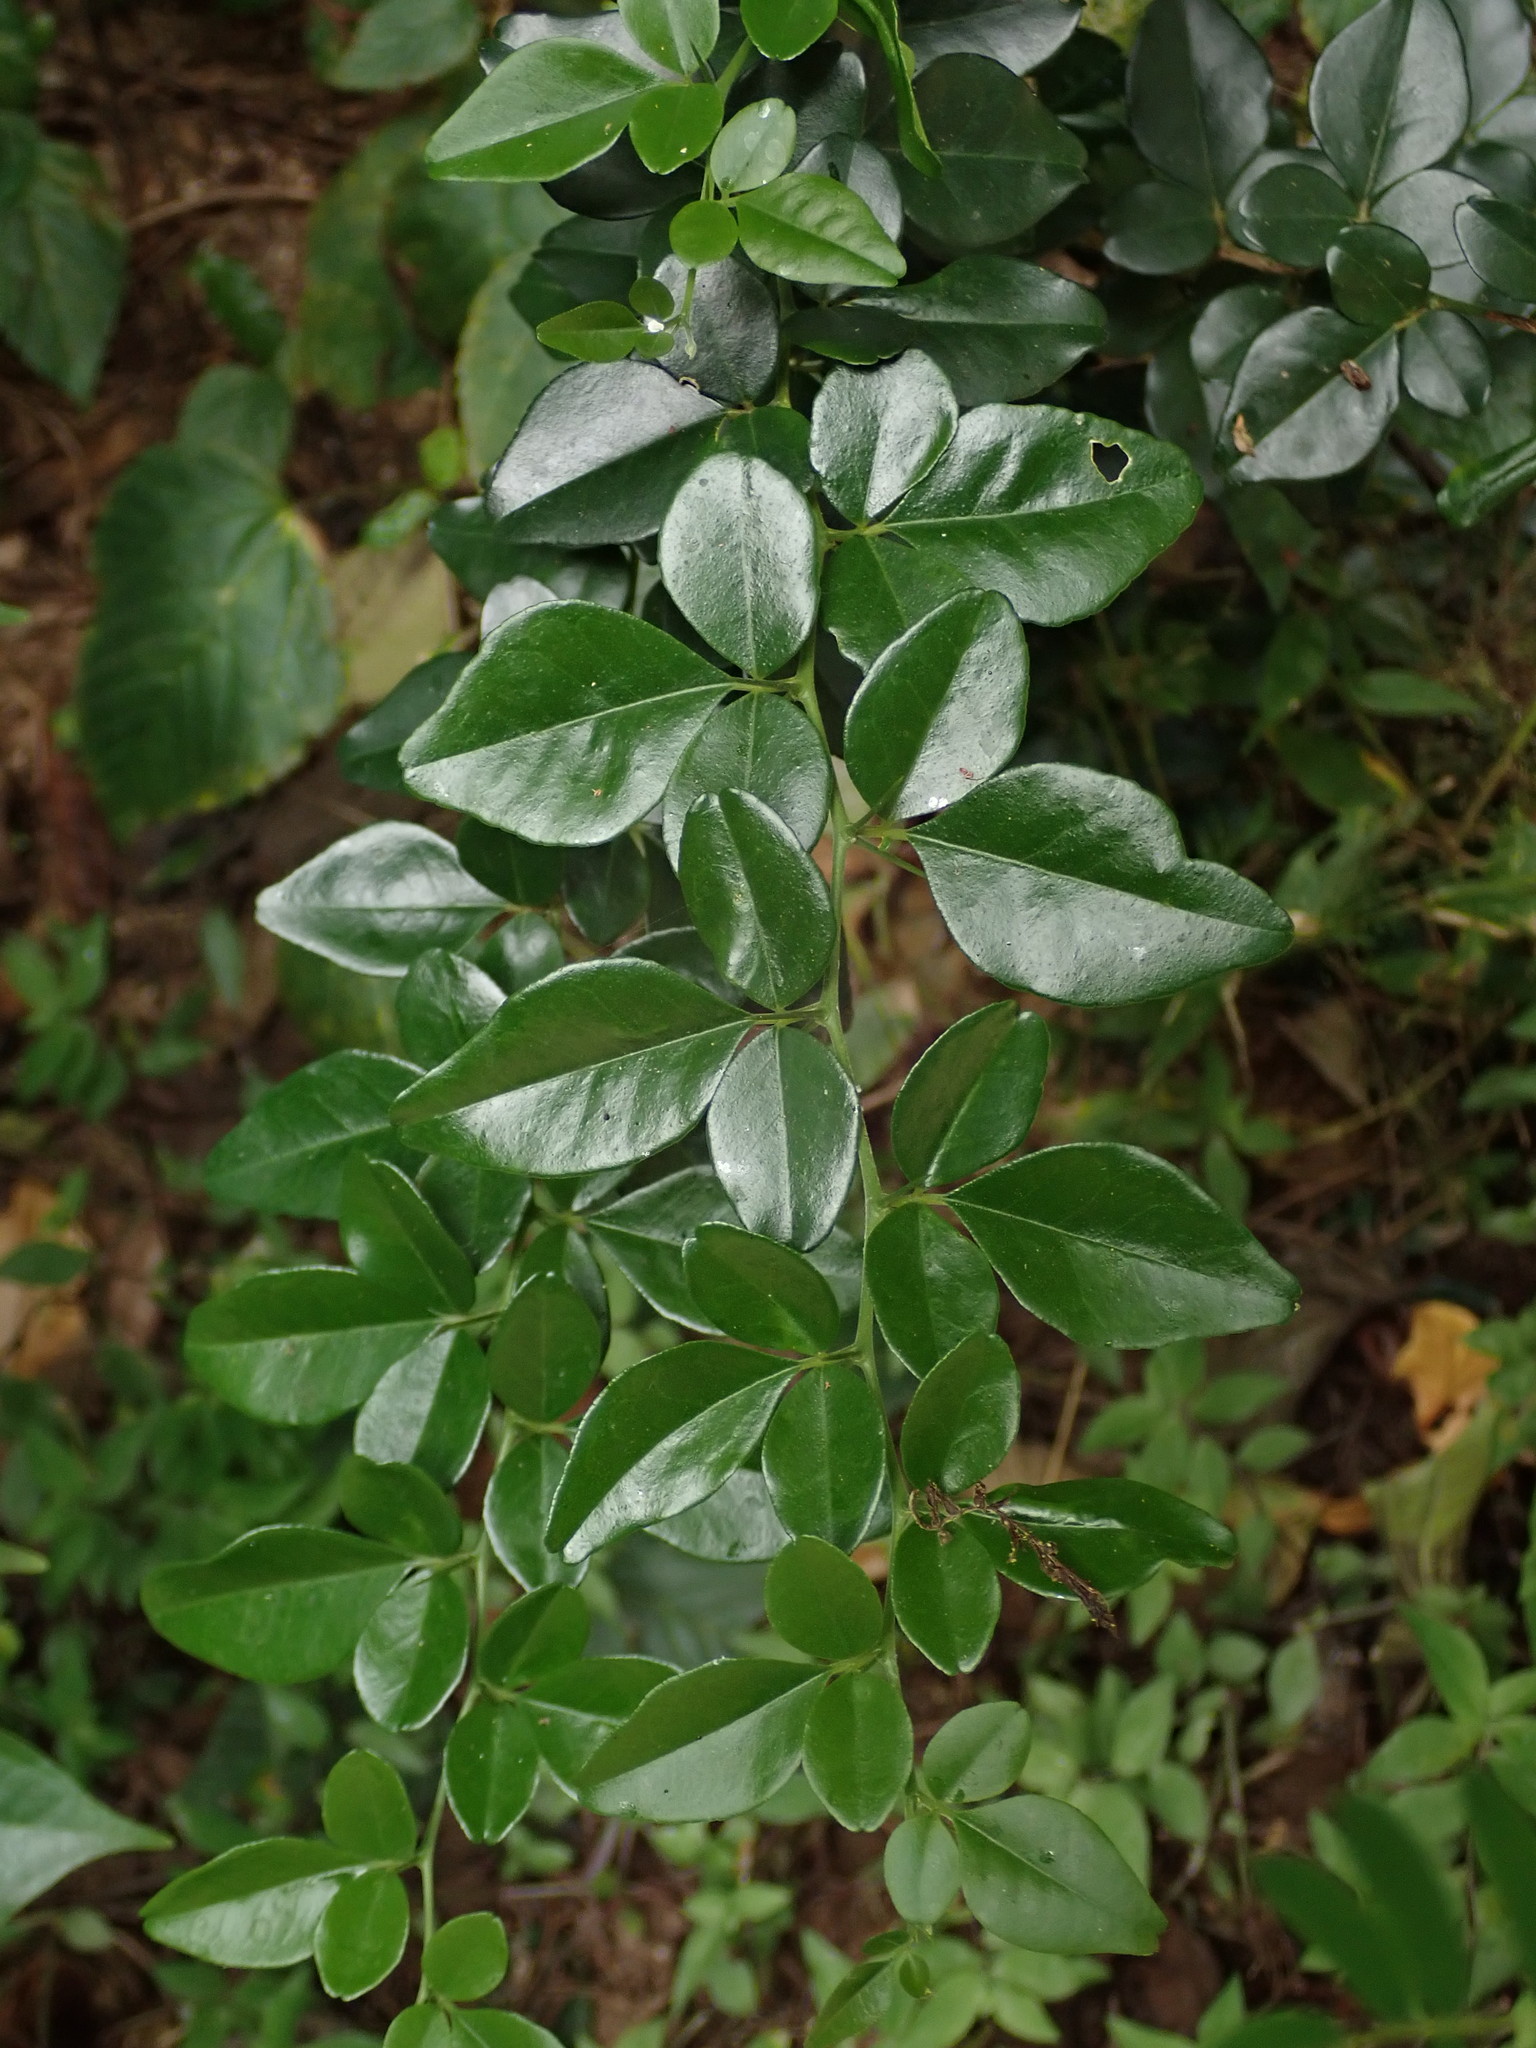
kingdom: Plantae
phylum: Tracheophyta
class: Magnoliopsida
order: Sapindales
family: Rutaceae
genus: Triphasia
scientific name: Triphasia trifolia
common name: Limeberry
